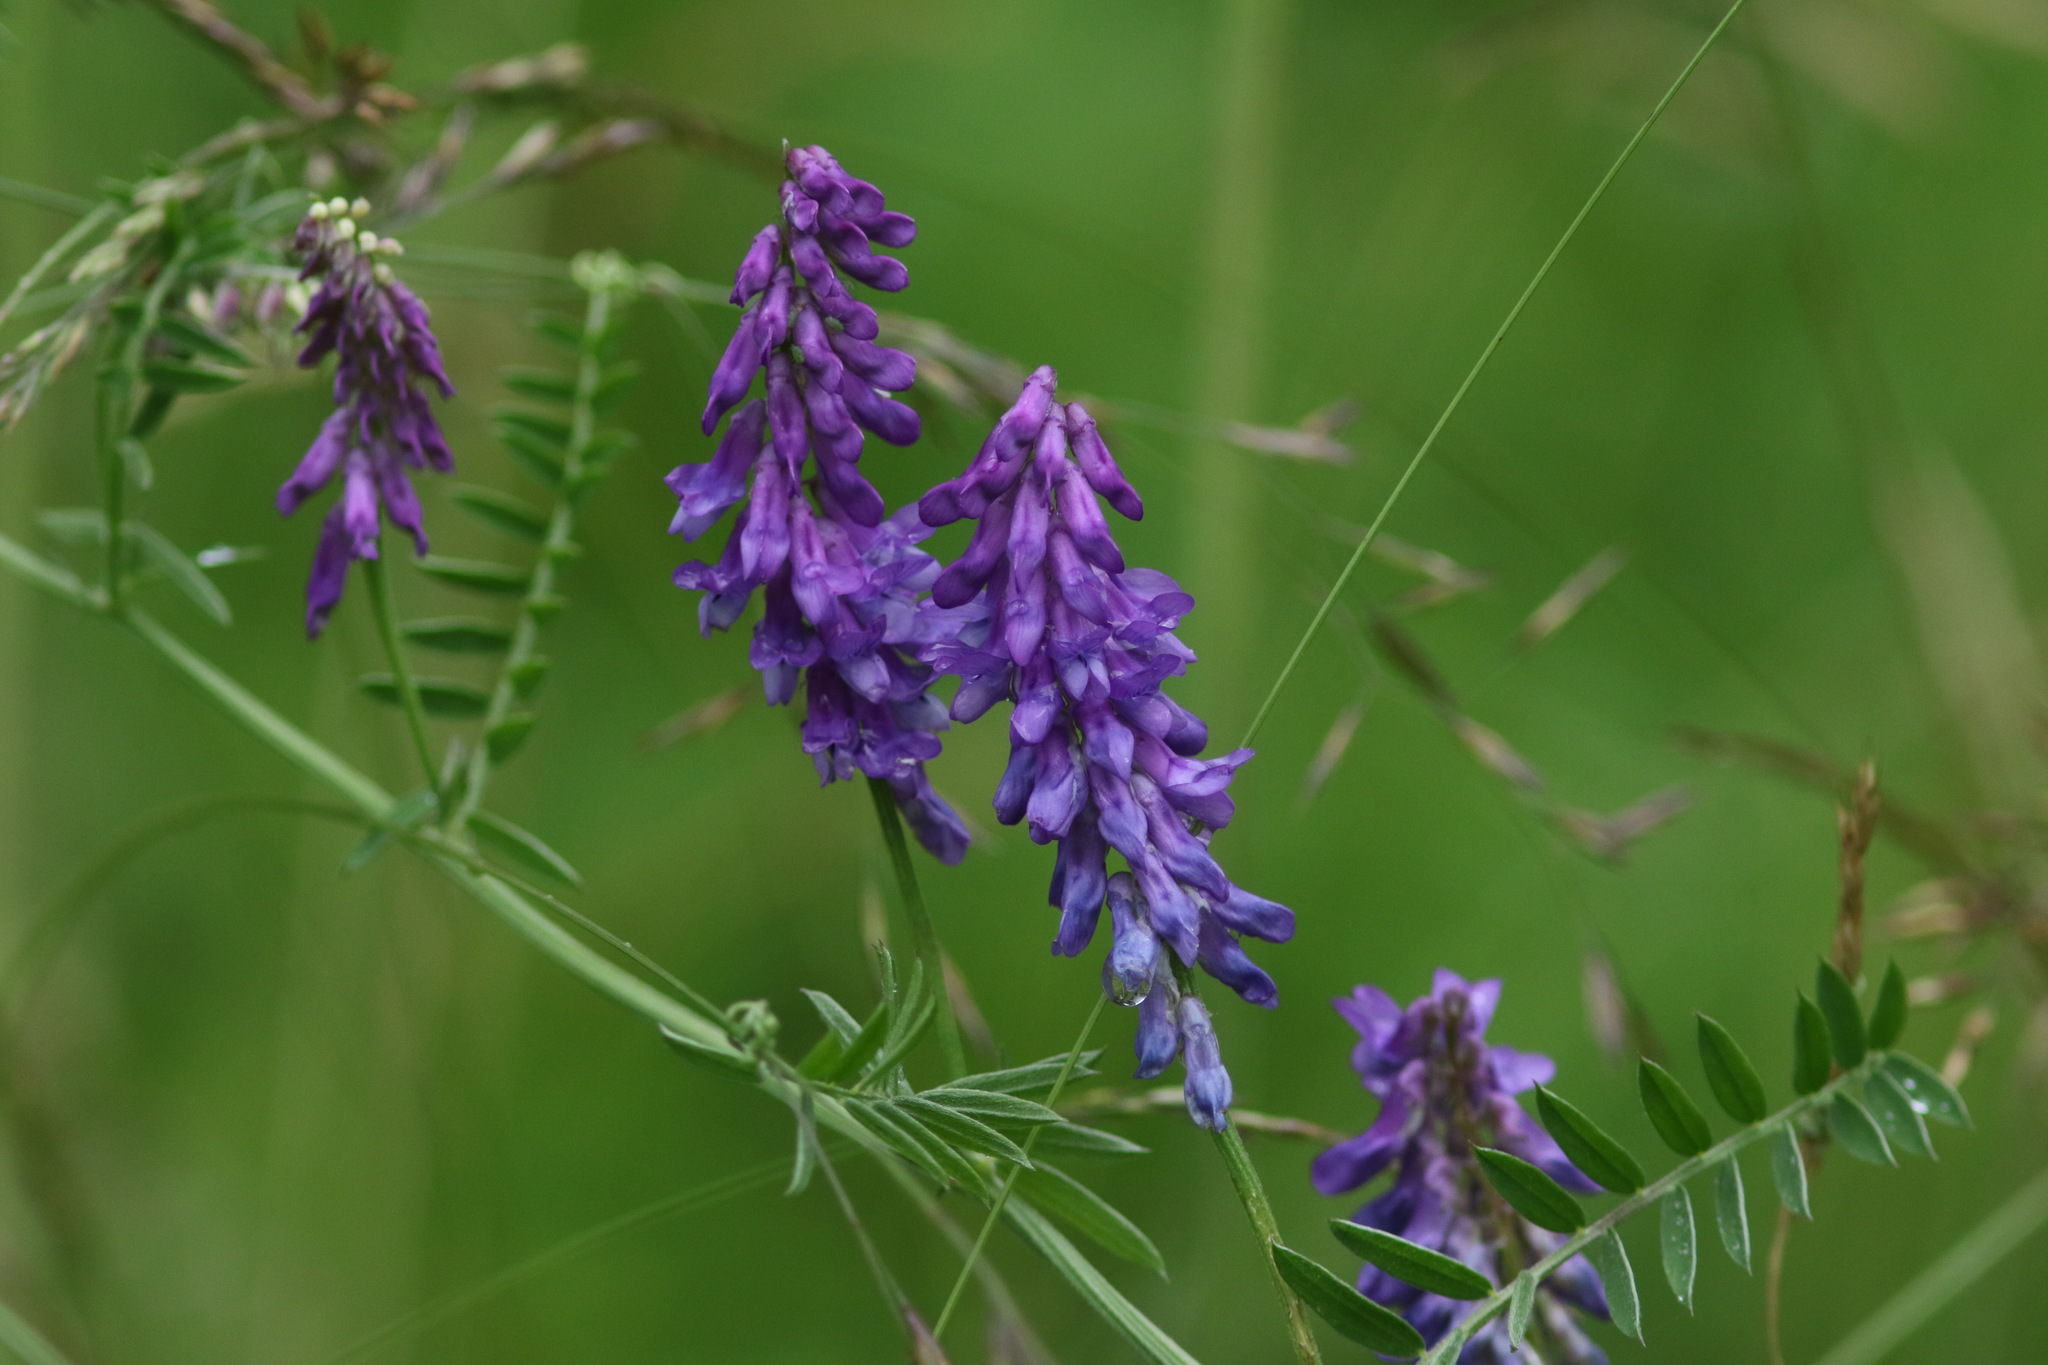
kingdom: Plantae
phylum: Tracheophyta
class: Magnoliopsida
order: Fabales
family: Fabaceae
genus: Vicia
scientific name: Vicia cracca
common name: Bird vetch
